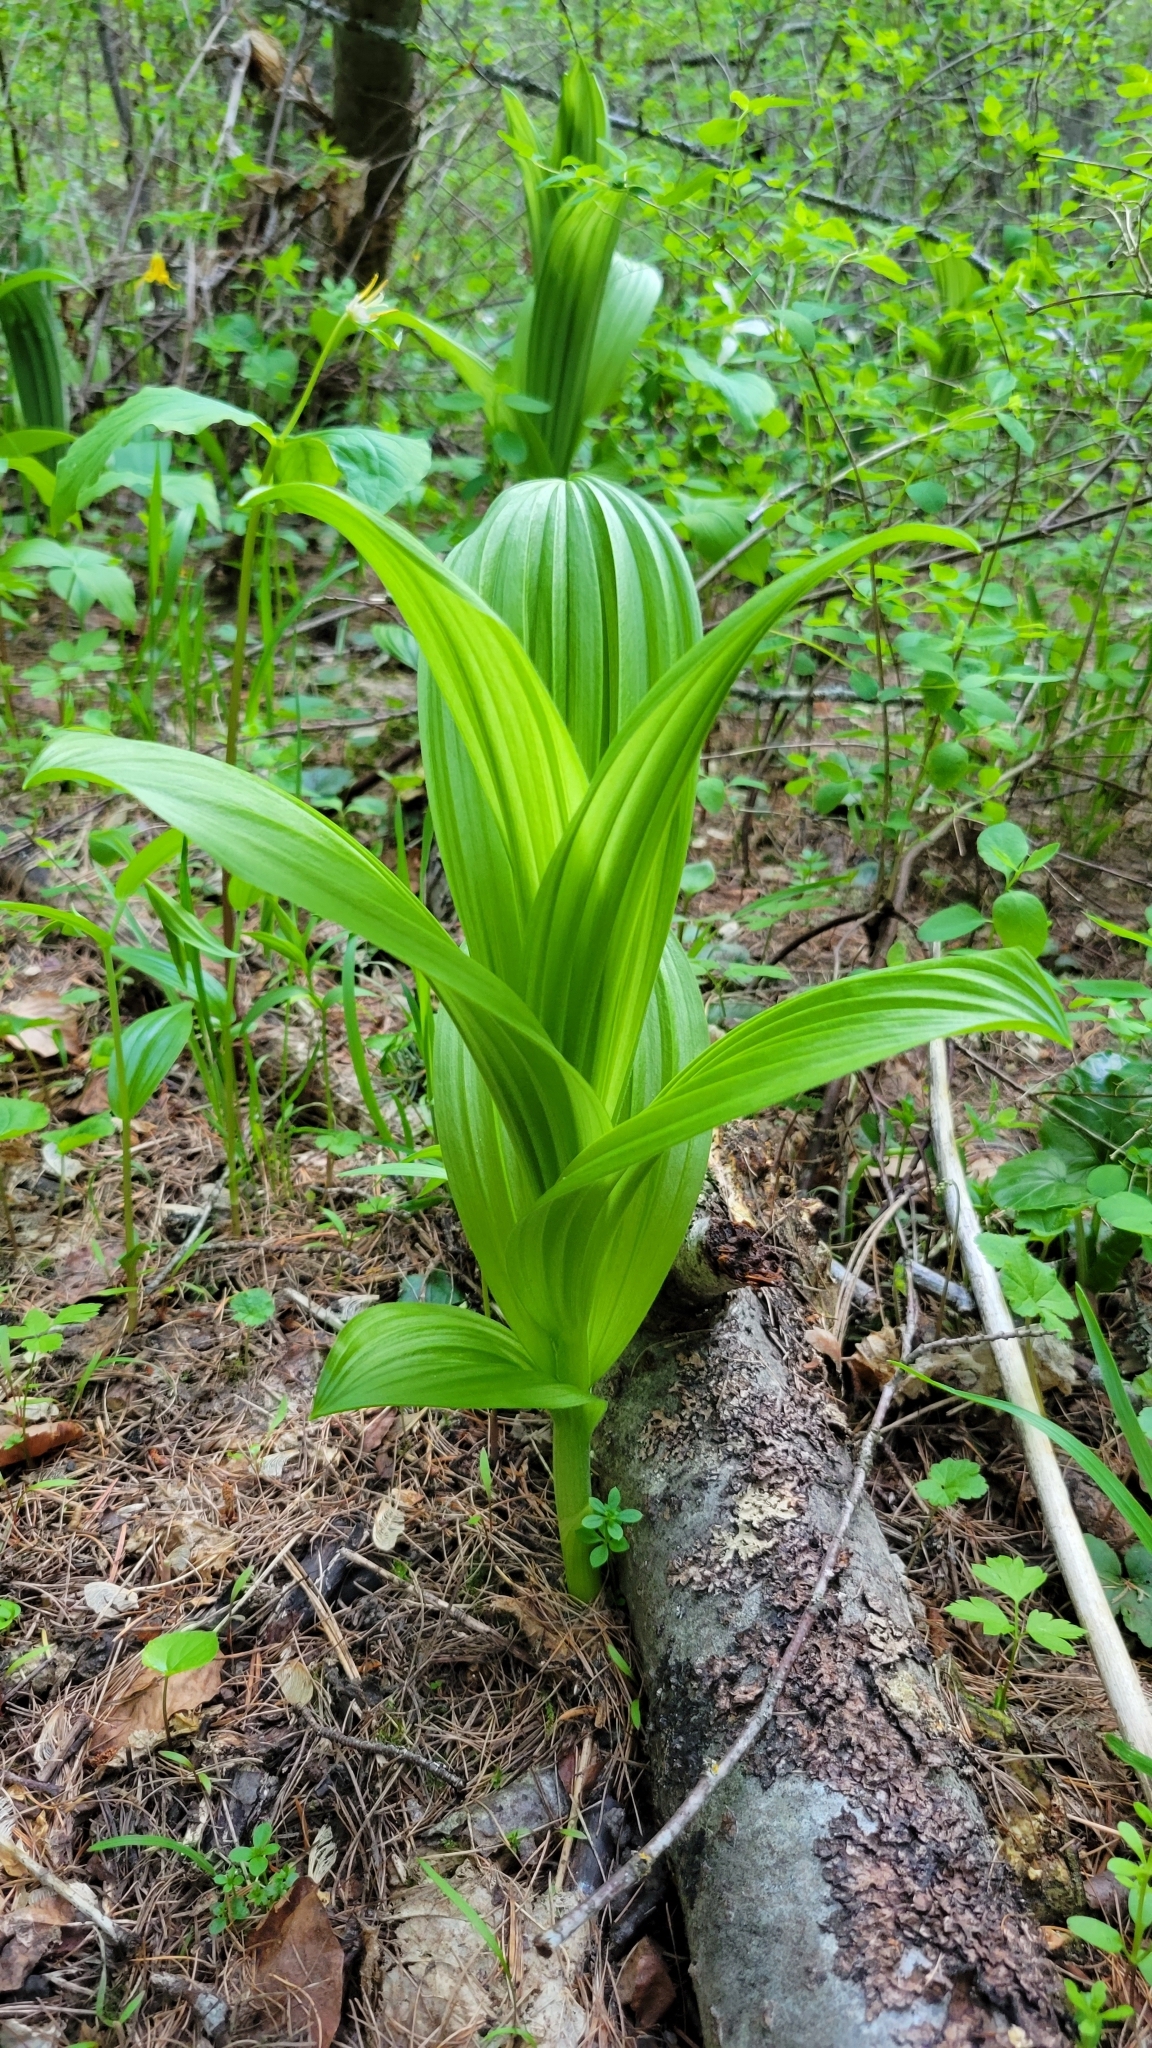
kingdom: Plantae
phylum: Tracheophyta
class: Liliopsida
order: Liliales
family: Melanthiaceae
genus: Veratrum
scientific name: Veratrum viride
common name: American false hellebore
